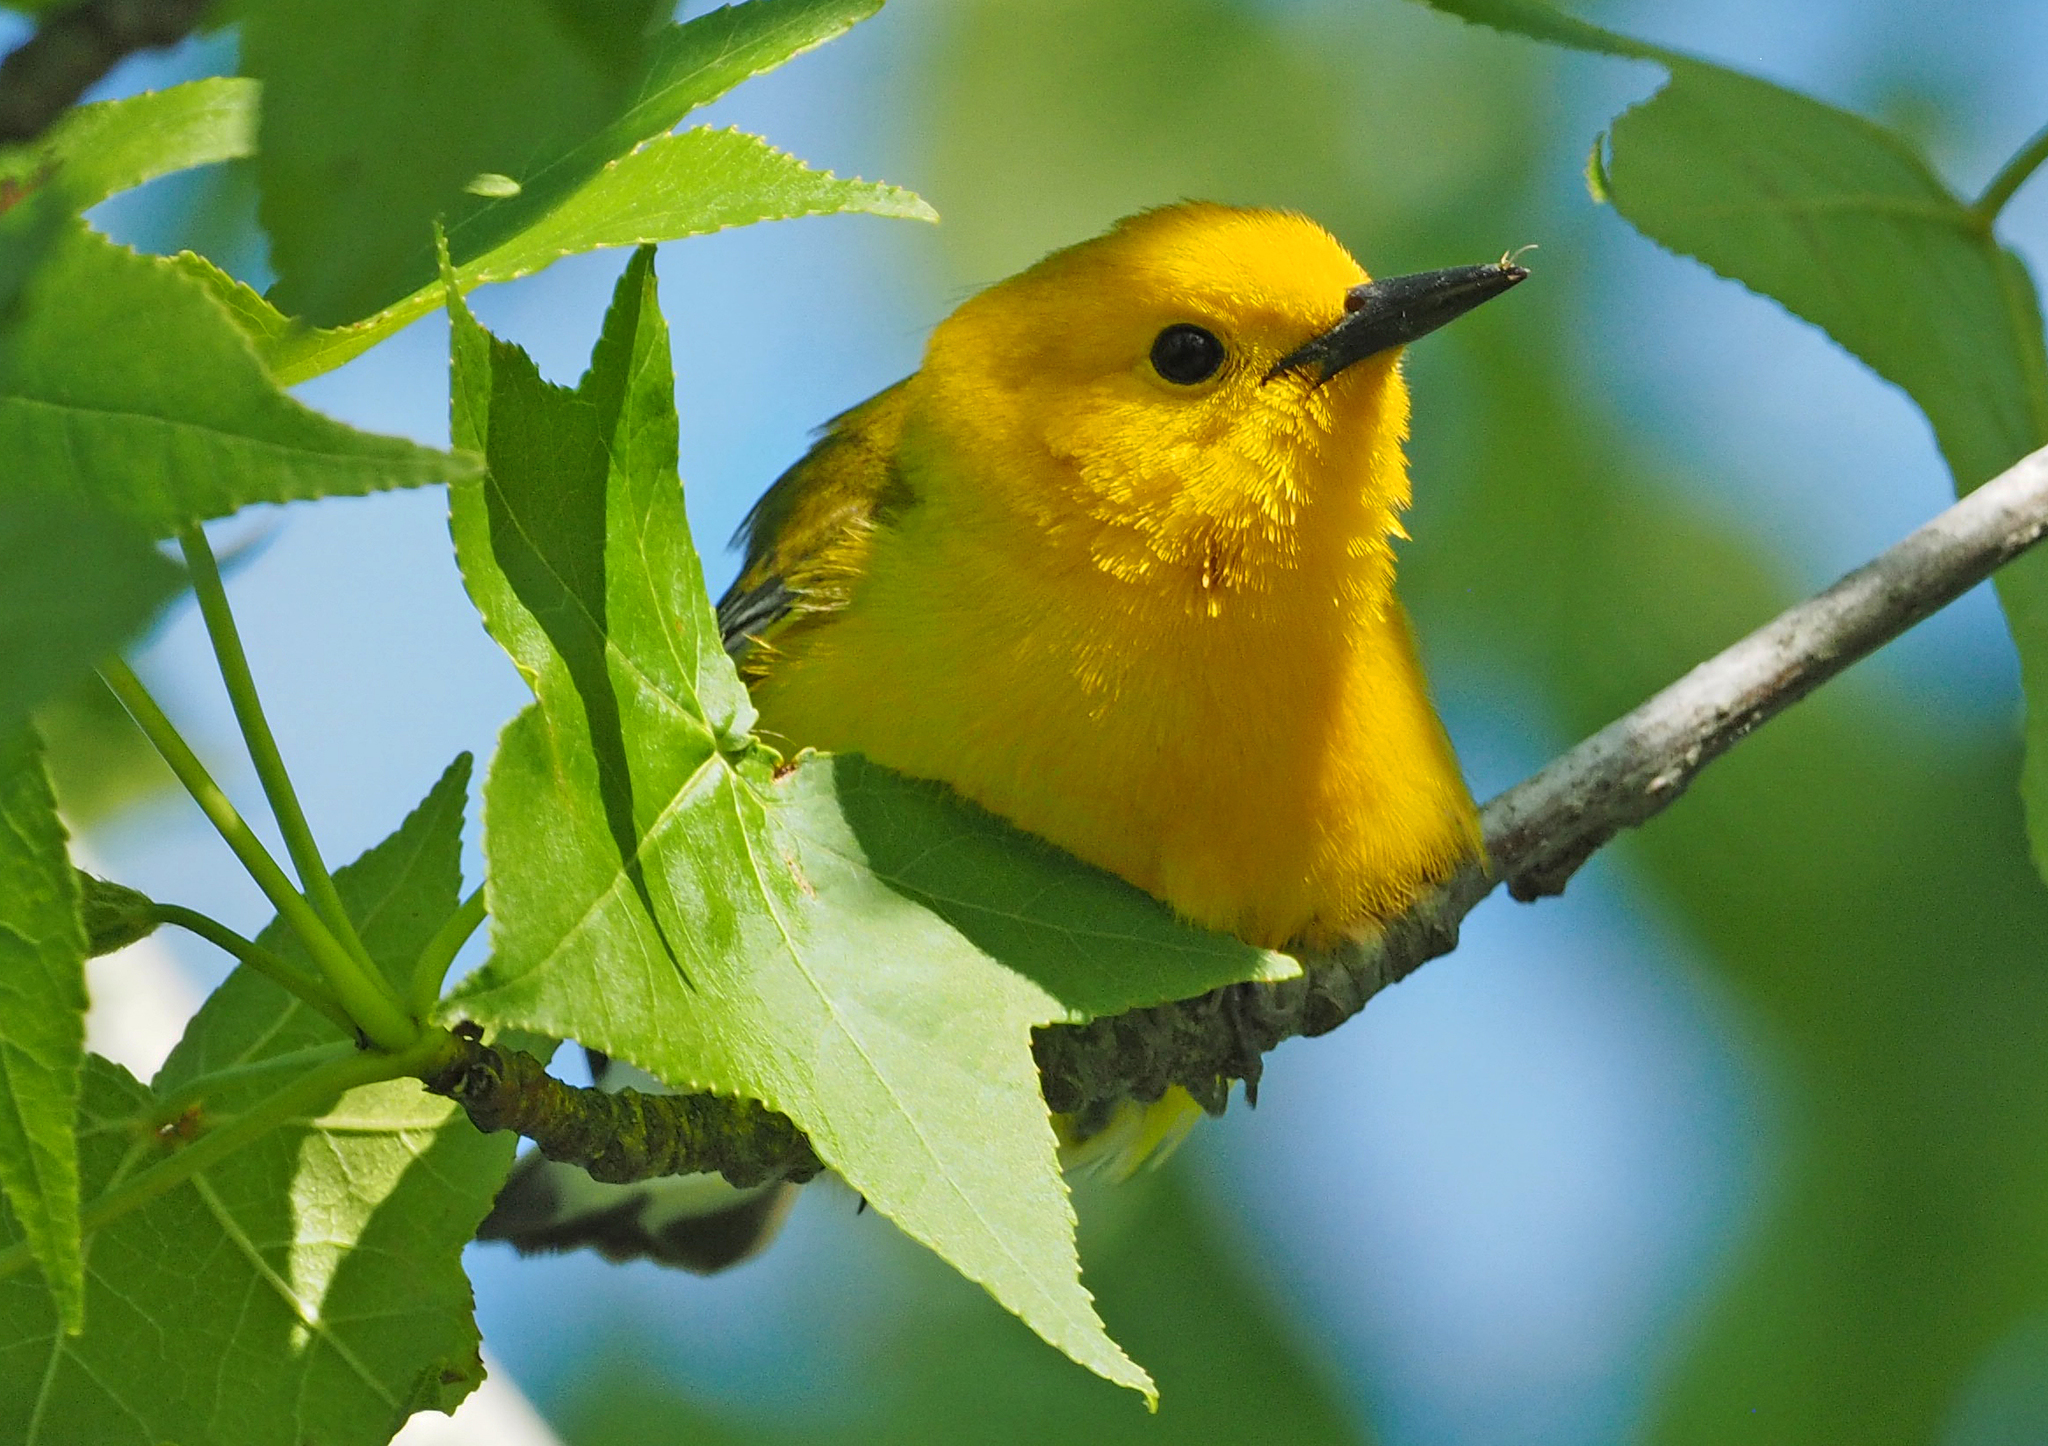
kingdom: Animalia
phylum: Chordata
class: Aves
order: Passeriformes
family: Parulidae
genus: Protonotaria
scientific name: Protonotaria citrea
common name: Prothonotary warbler
